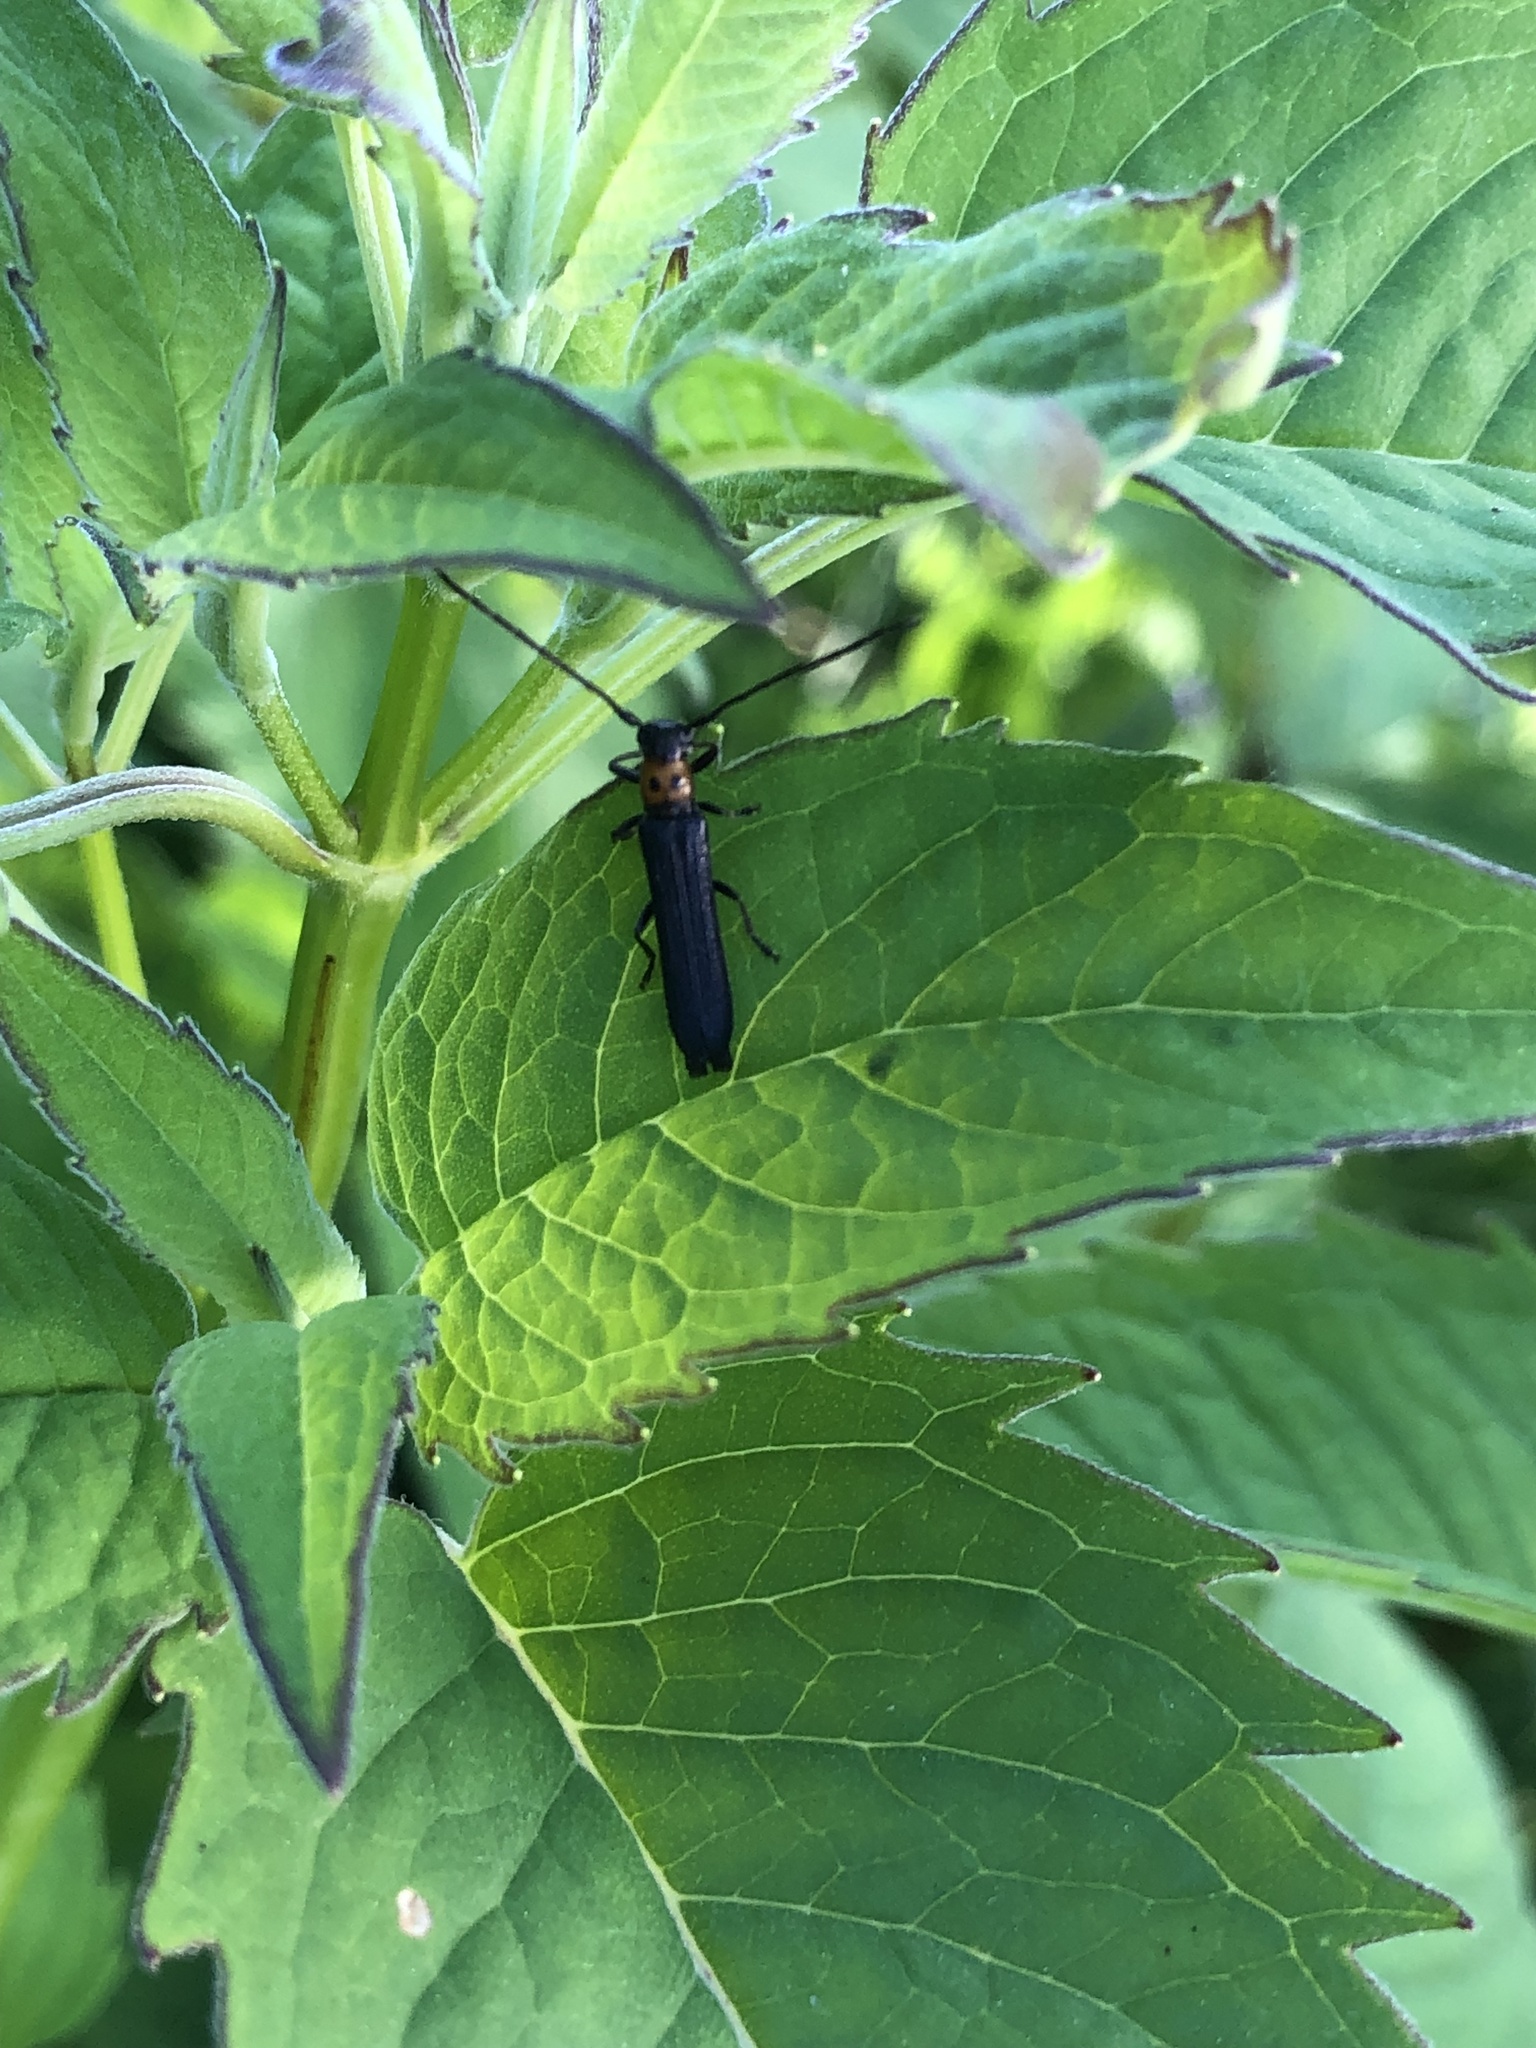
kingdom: Animalia
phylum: Arthropoda
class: Insecta
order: Coleoptera
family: Cerambycidae
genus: Oberea
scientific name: Oberea perspicillata
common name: Raspberry cane borer
